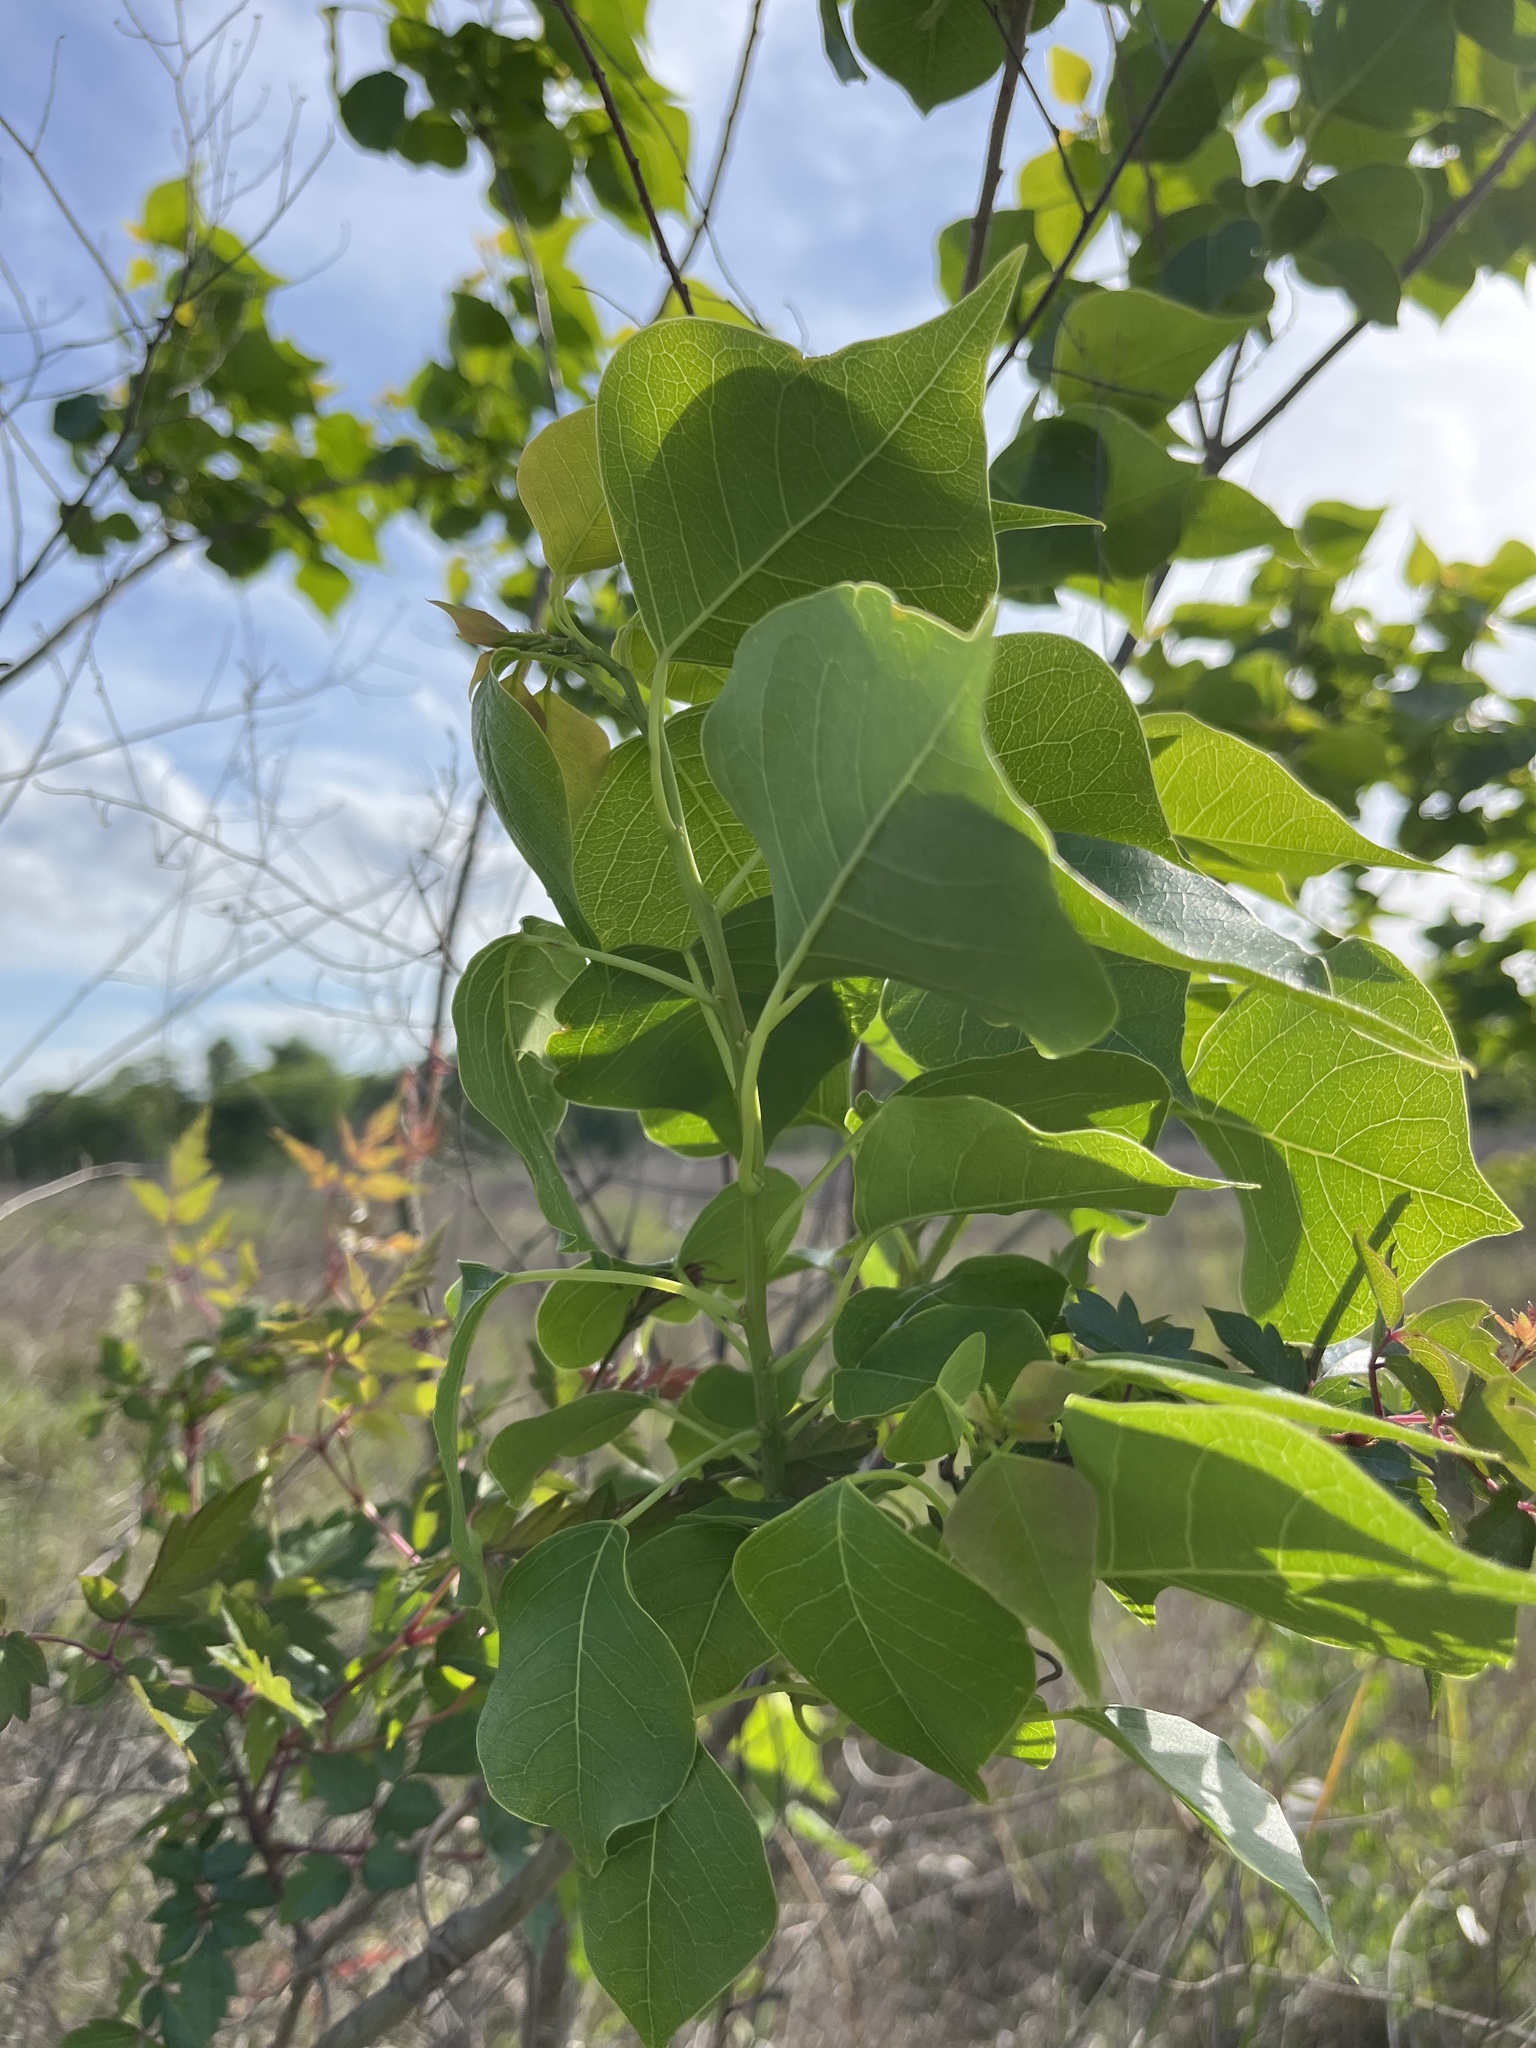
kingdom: Plantae
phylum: Tracheophyta
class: Magnoliopsida
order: Malpighiales
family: Euphorbiaceae
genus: Triadica
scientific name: Triadica sebifera
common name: Chinese tallow
